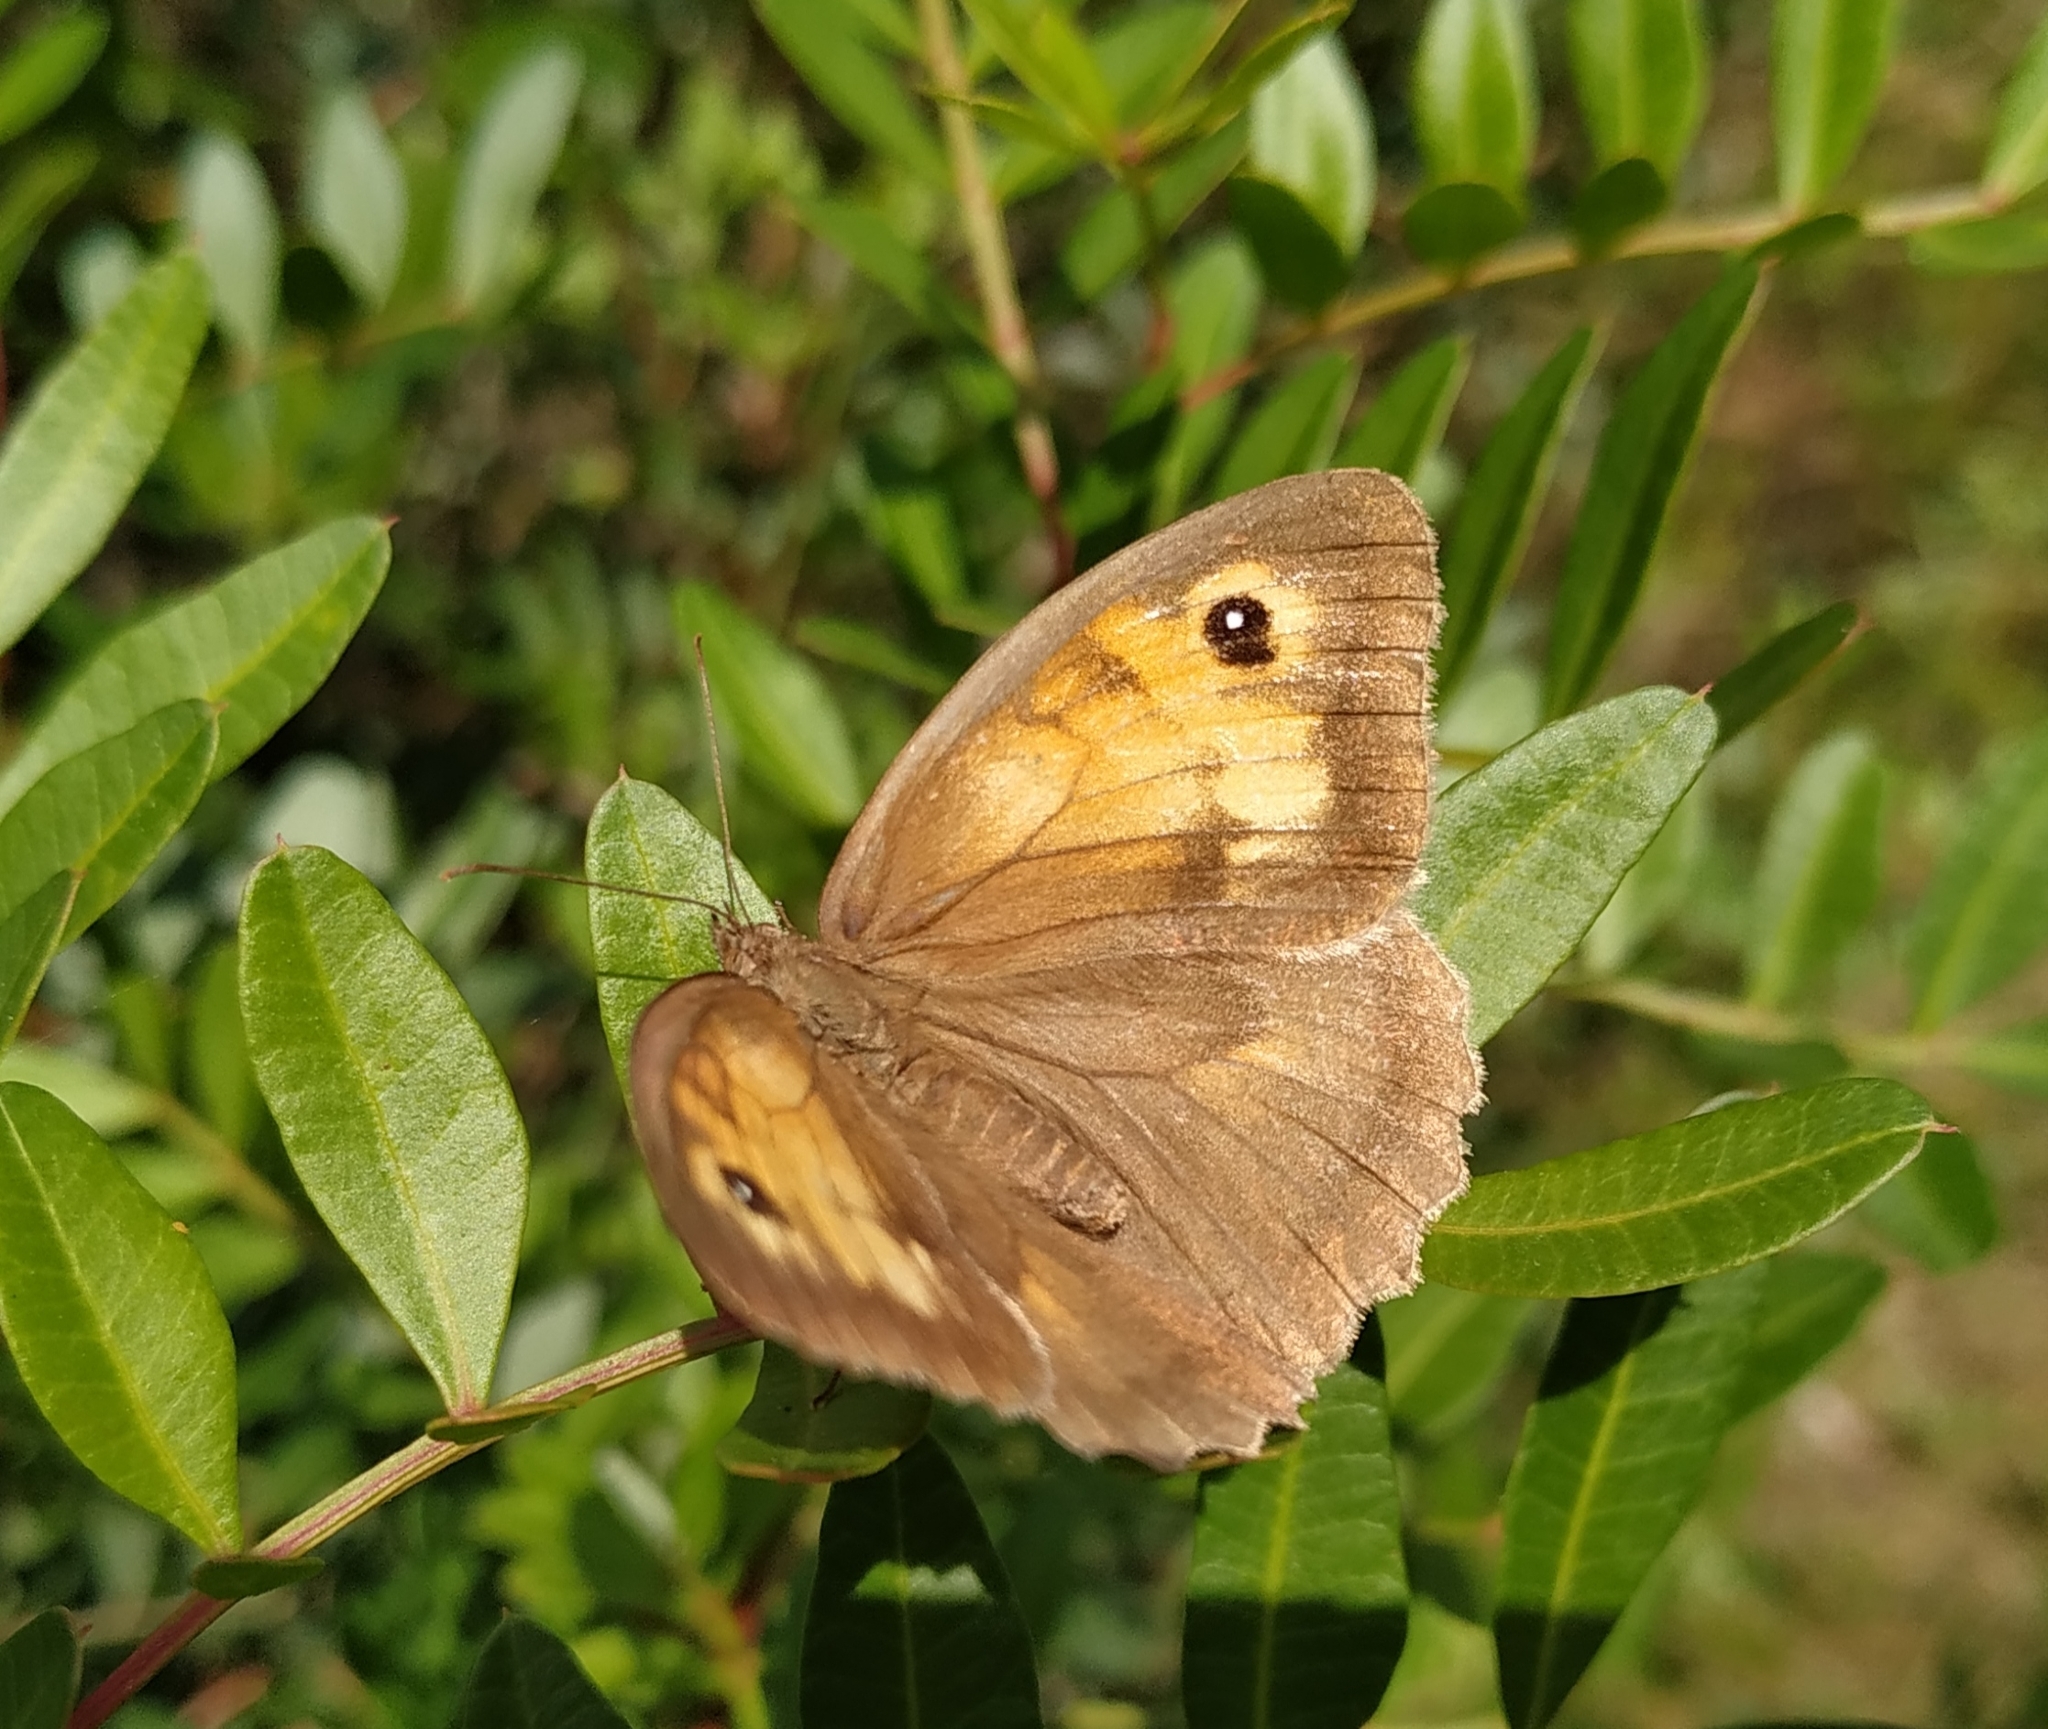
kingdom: Animalia
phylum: Arthropoda
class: Insecta
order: Lepidoptera
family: Nymphalidae
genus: Maniola
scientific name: Maniola jurtina
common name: Meadow brown
